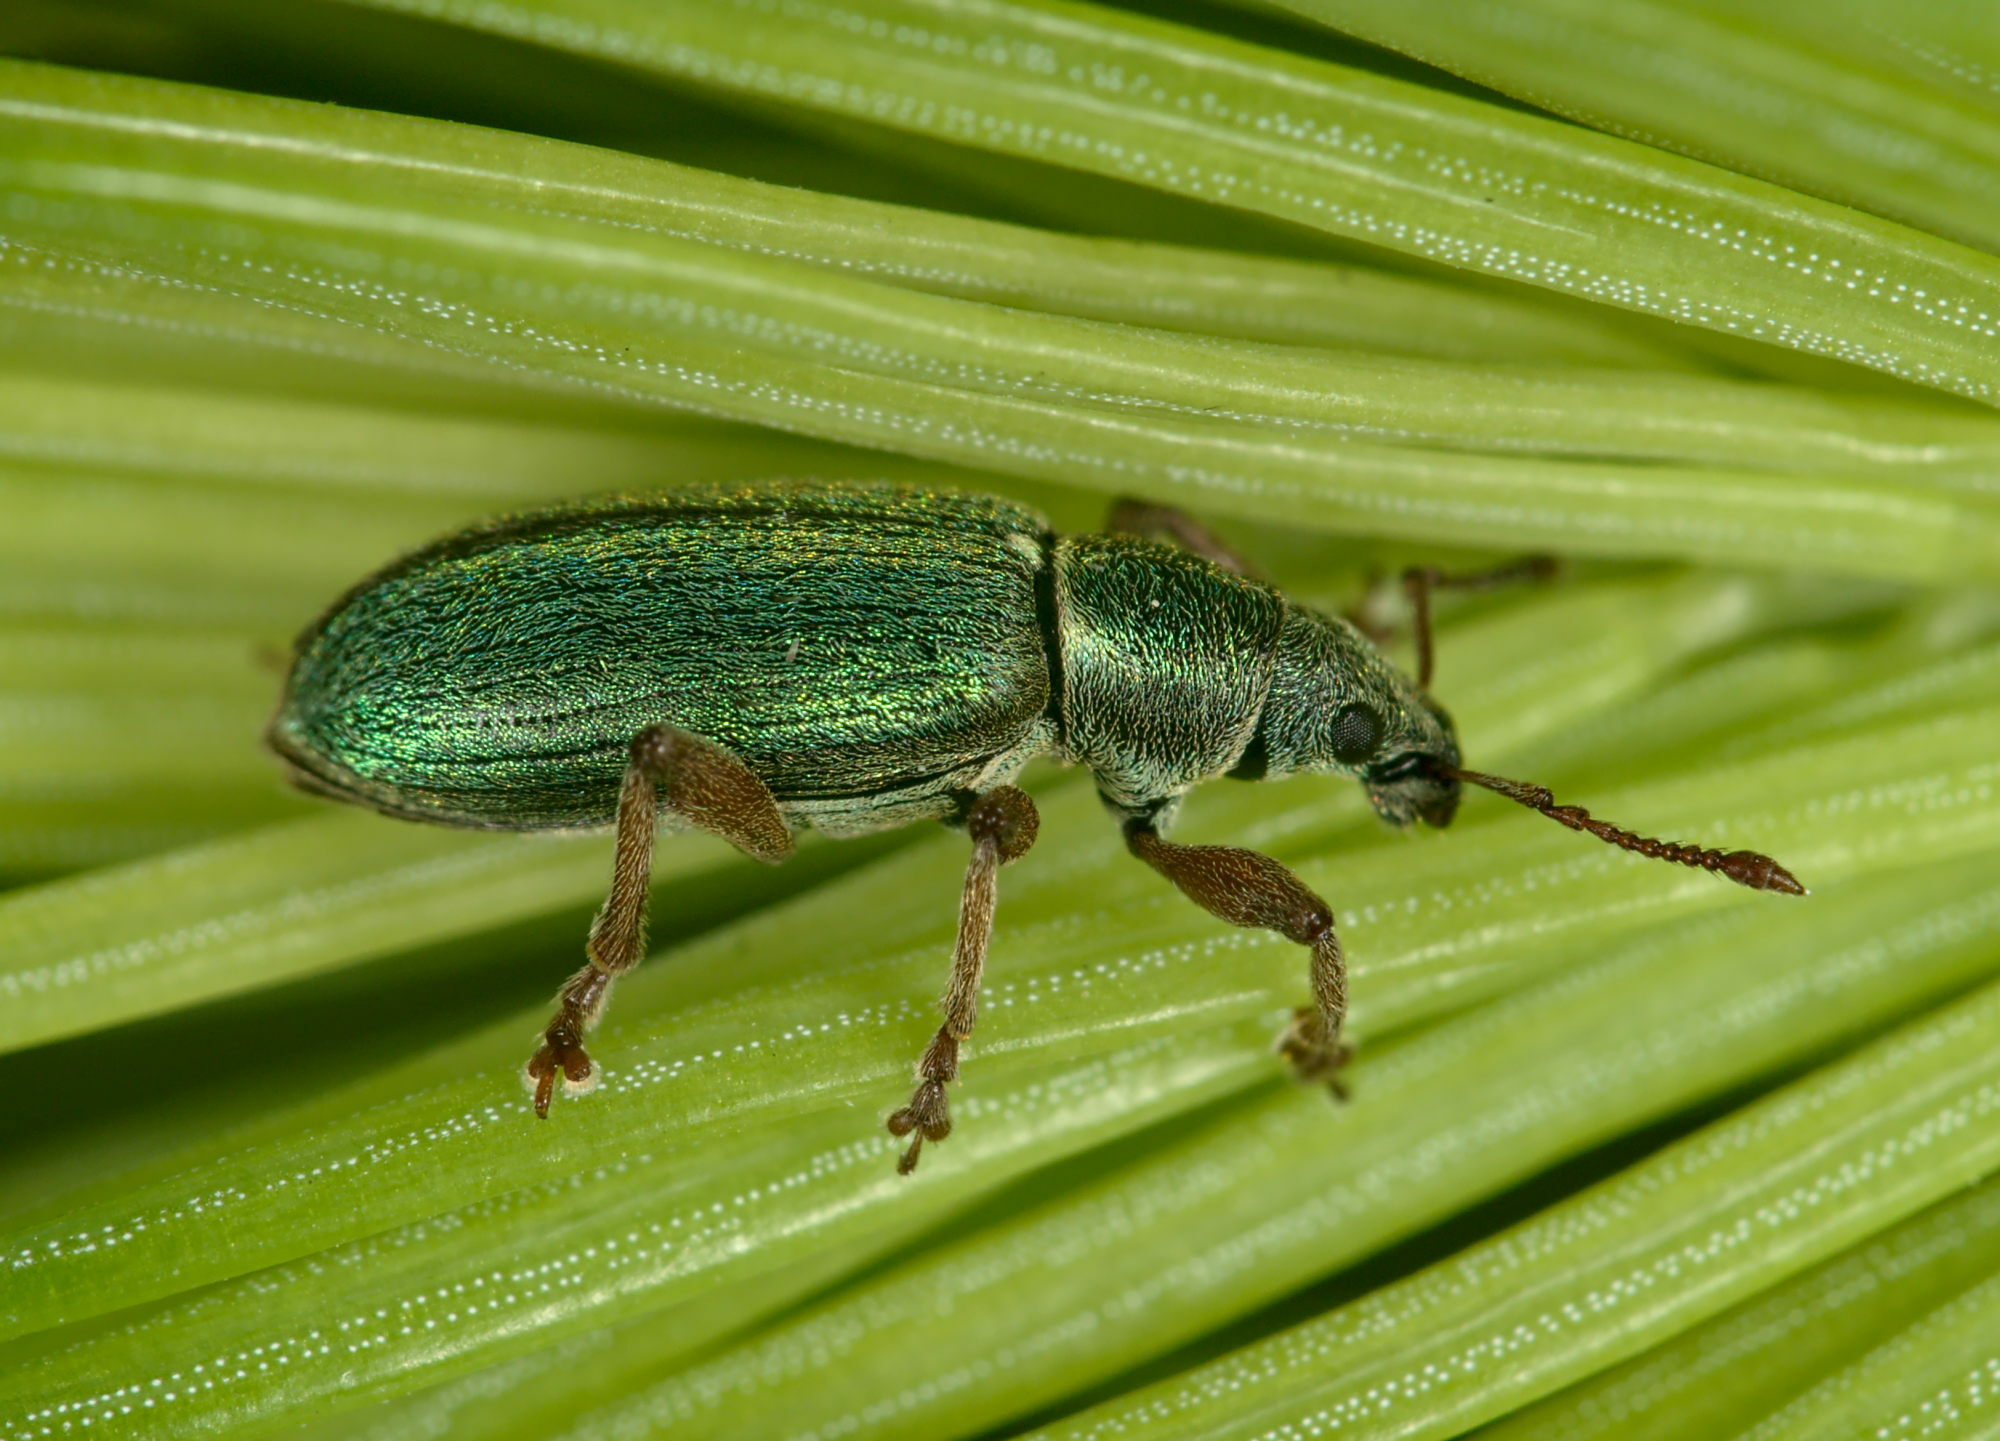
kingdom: Animalia
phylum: Arthropoda
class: Insecta
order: Coleoptera
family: Curculionidae
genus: Polydrusus
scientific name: Polydrusus viridinitens
